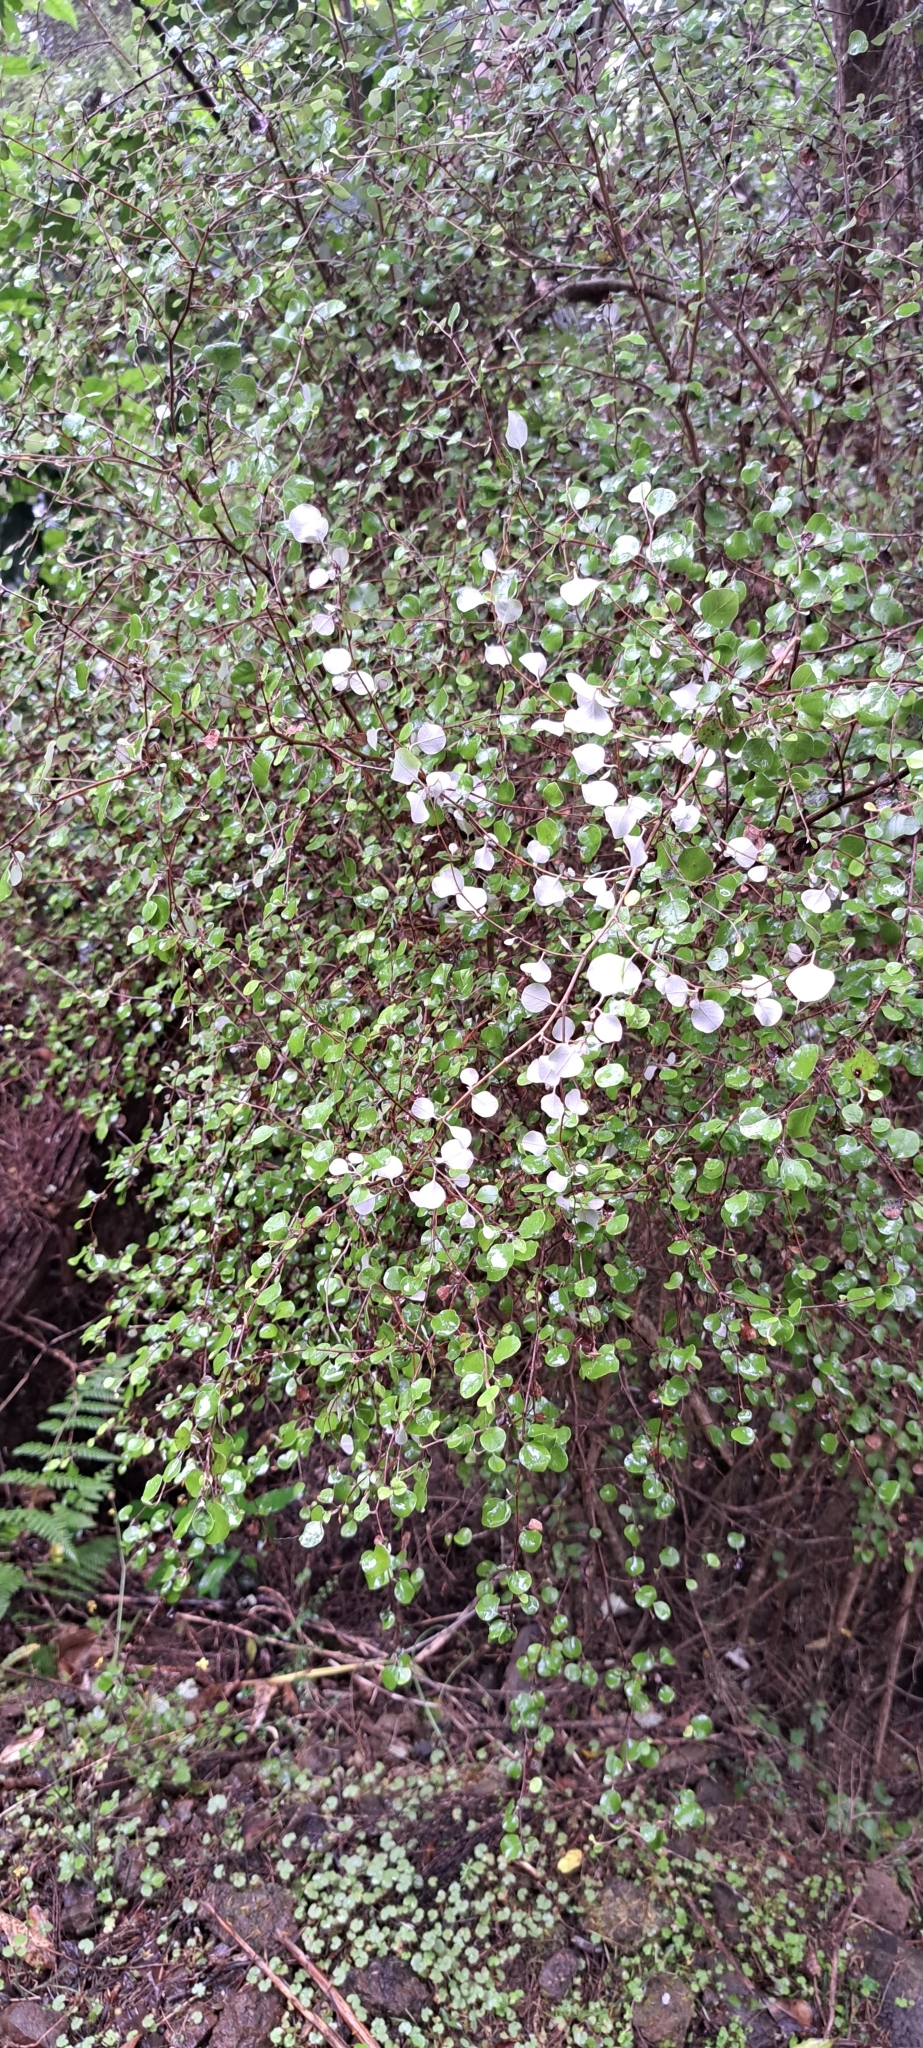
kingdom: Plantae
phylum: Tracheophyta
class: Magnoliopsida
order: Asterales
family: Asteraceae
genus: Ozothamnus
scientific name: Ozothamnus glomeratus
